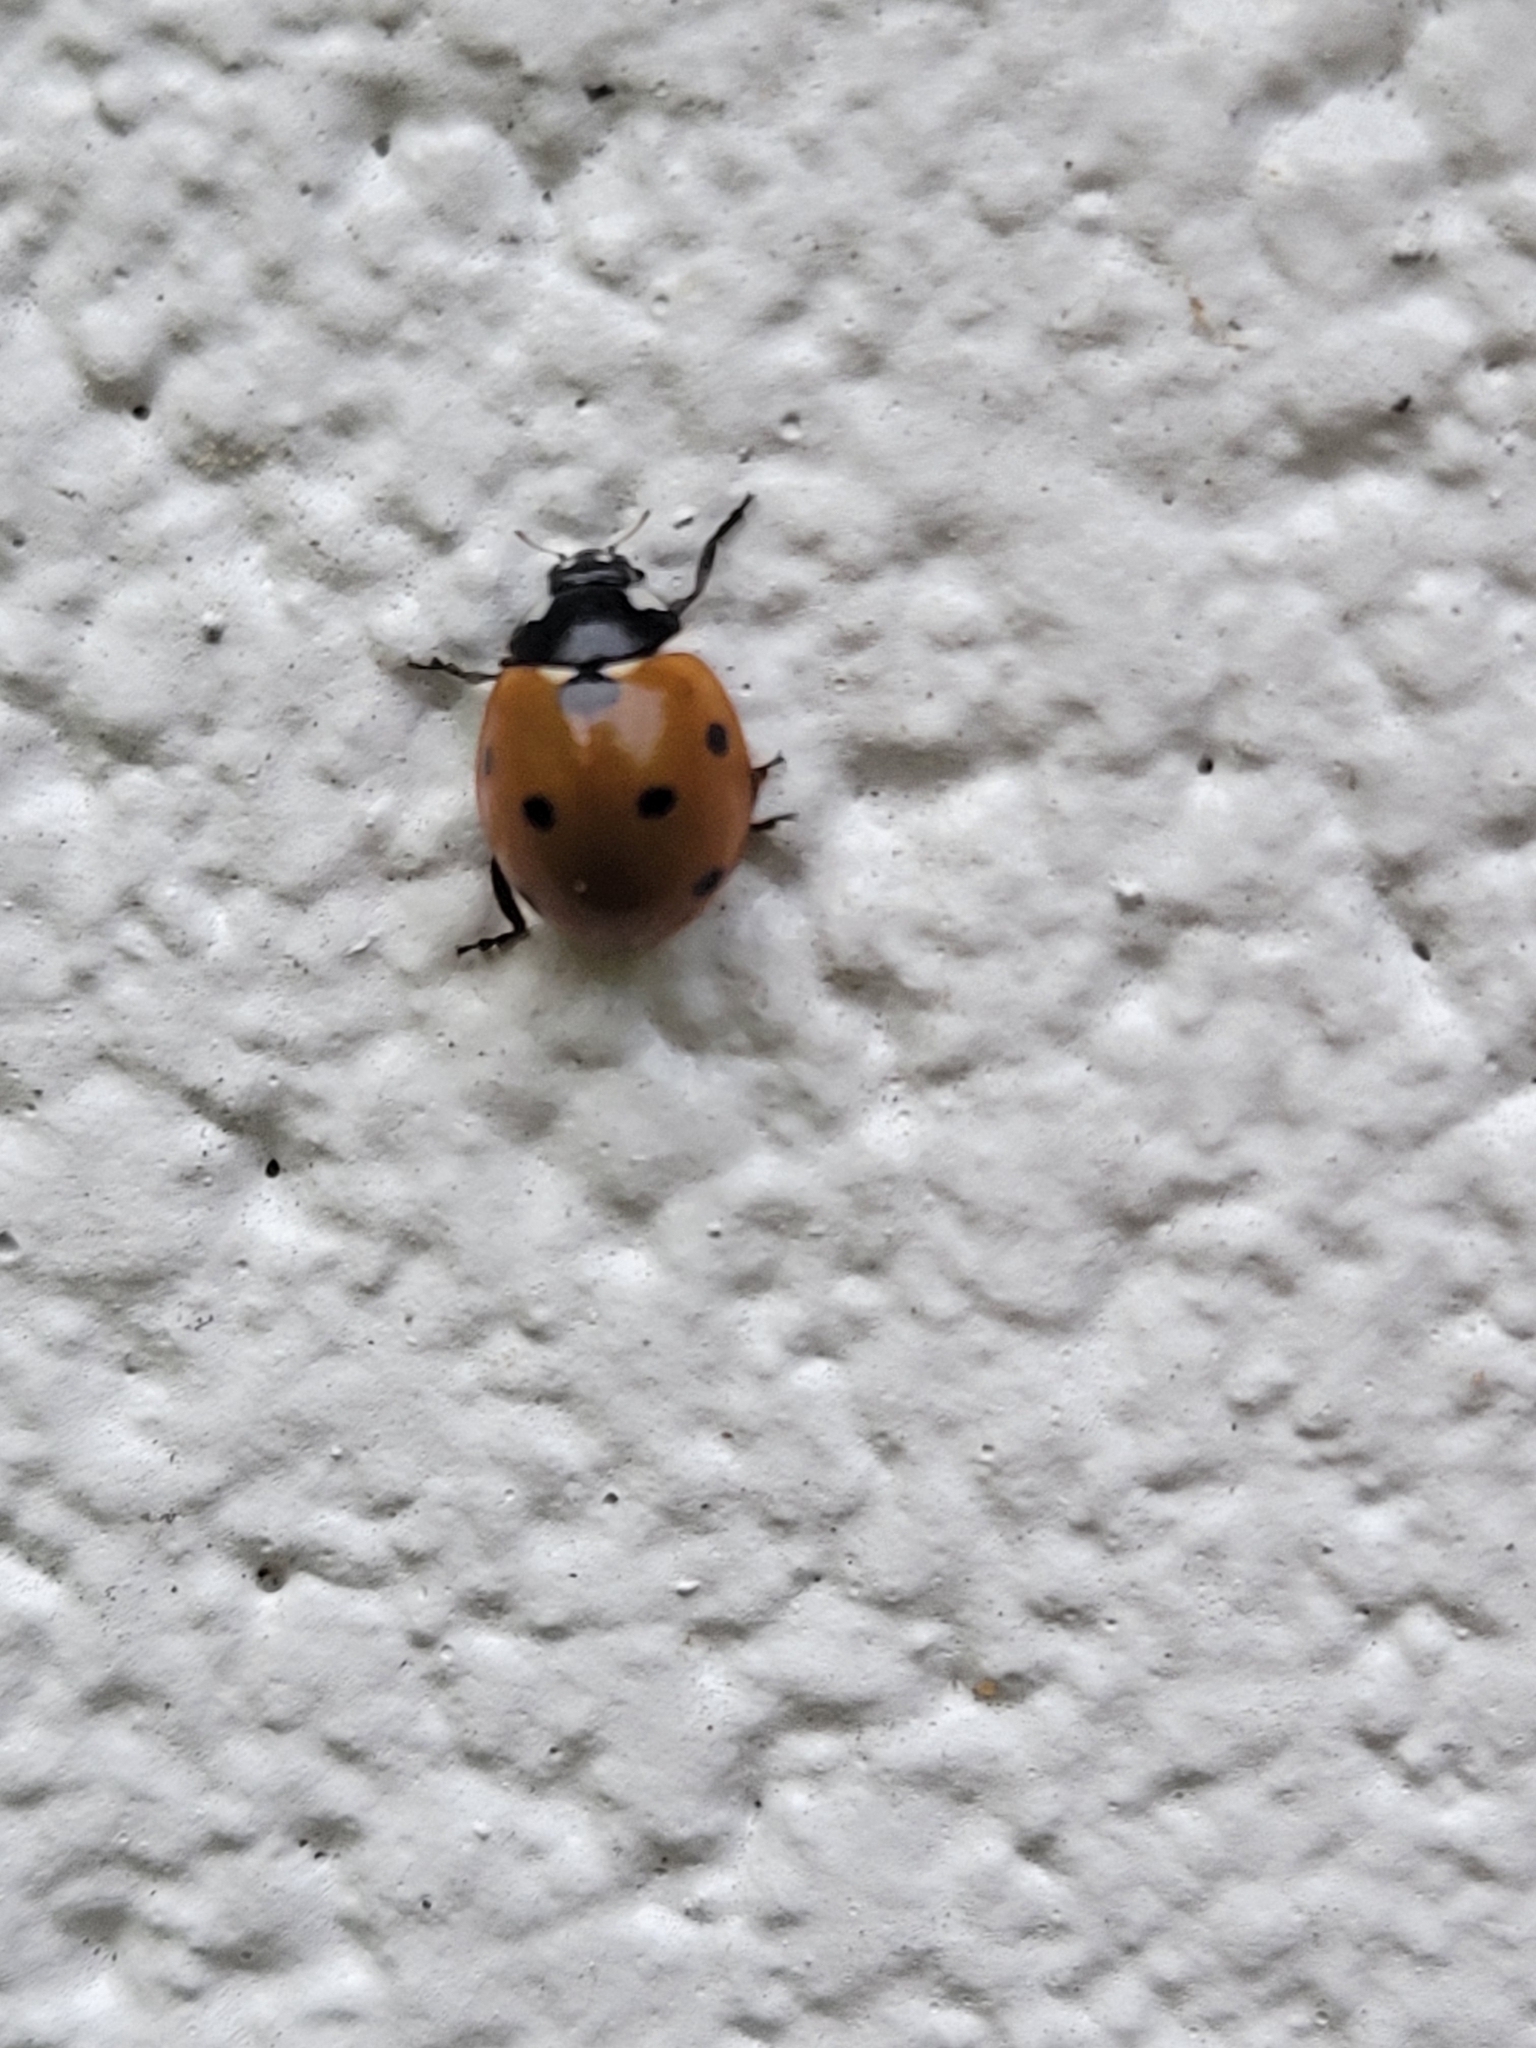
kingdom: Animalia
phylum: Arthropoda
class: Insecta
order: Coleoptera
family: Coccinellidae
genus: Coccinella
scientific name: Coccinella septempunctata
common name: Sevenspotted lady beetle
